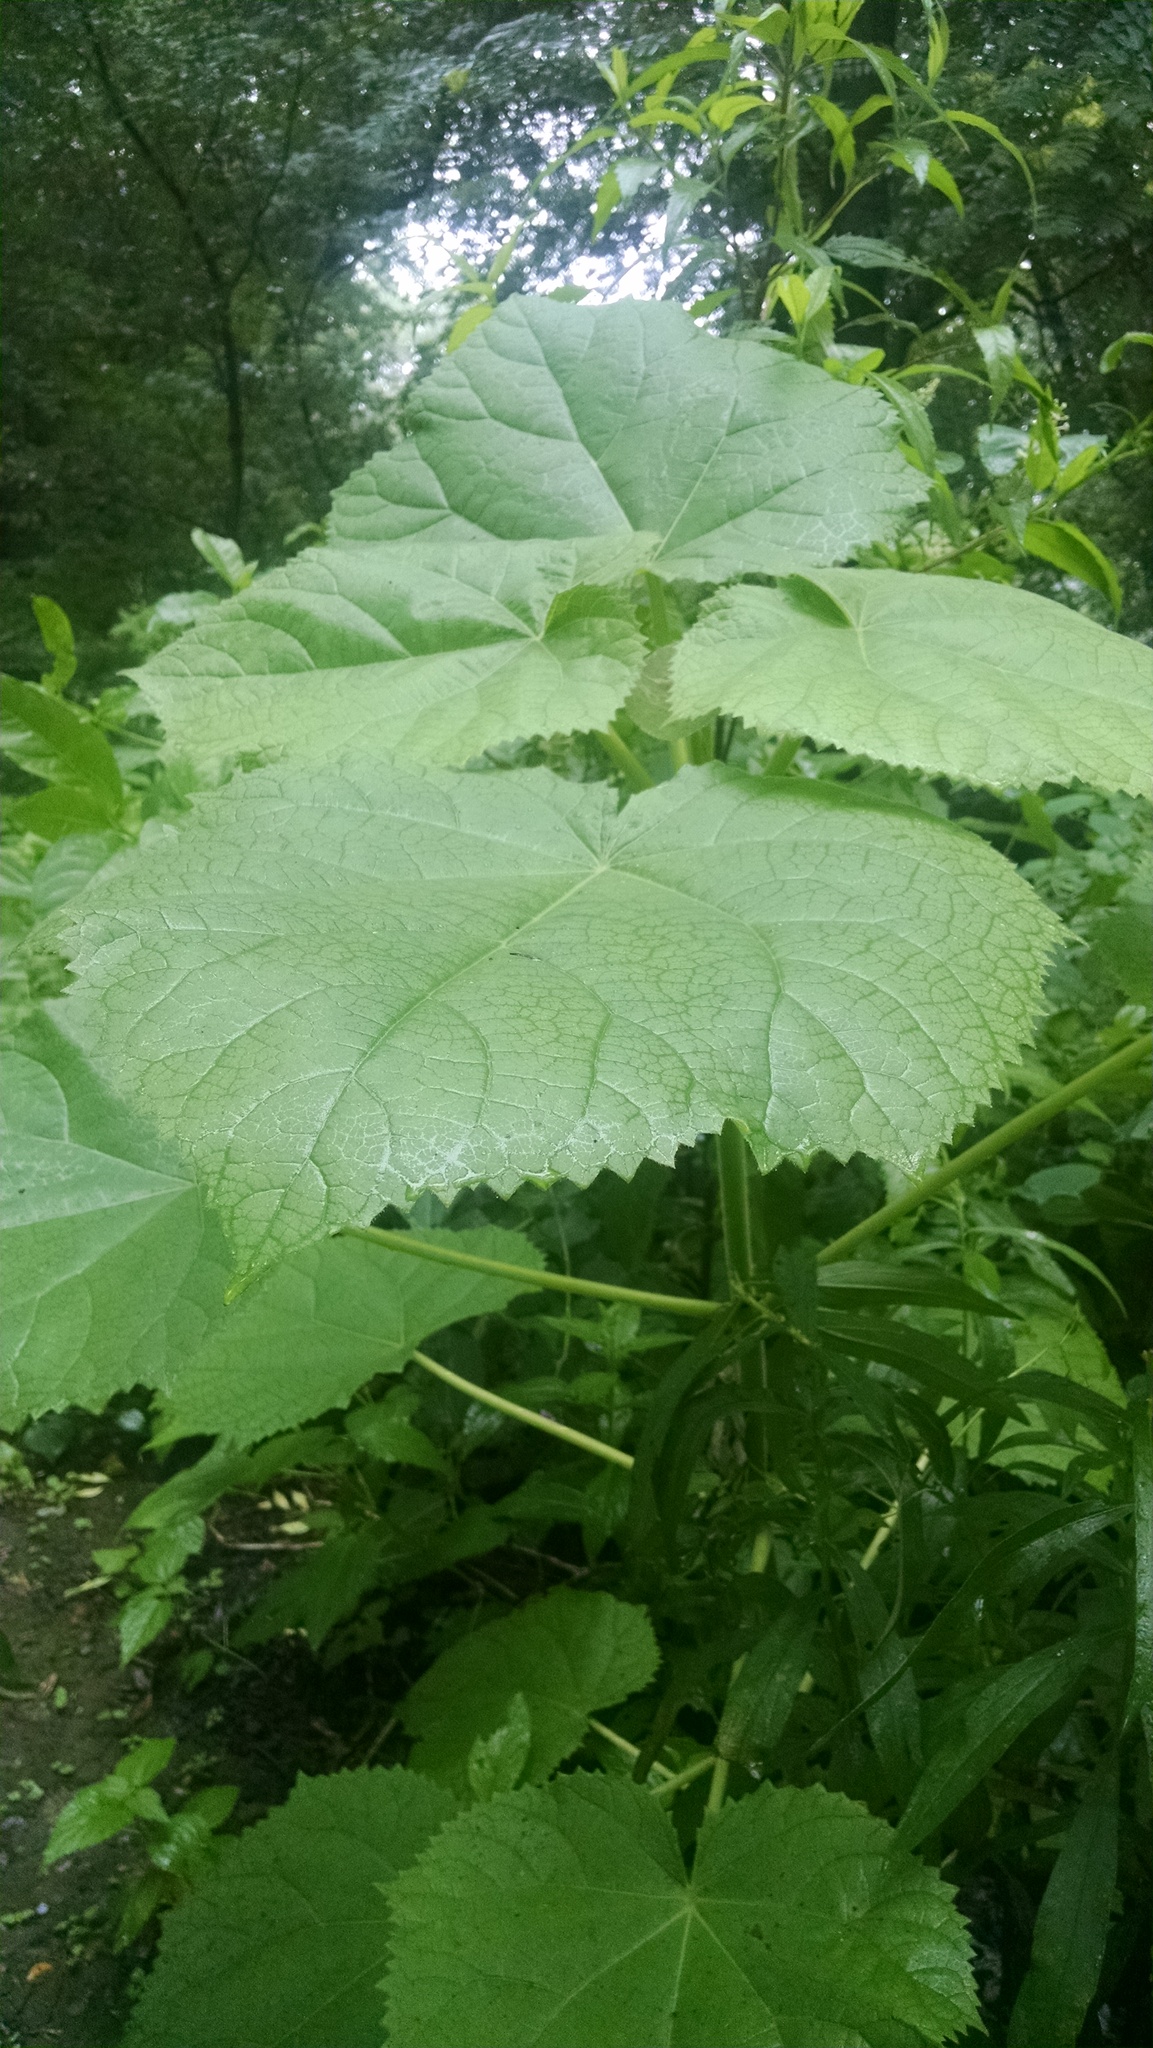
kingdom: Plantae
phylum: Tracheophyta
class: Magnoliopsida
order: Lamiales
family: Paulowniaceae
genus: Paulownia
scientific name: Paulownia tomentosa
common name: Foxglove-tree
